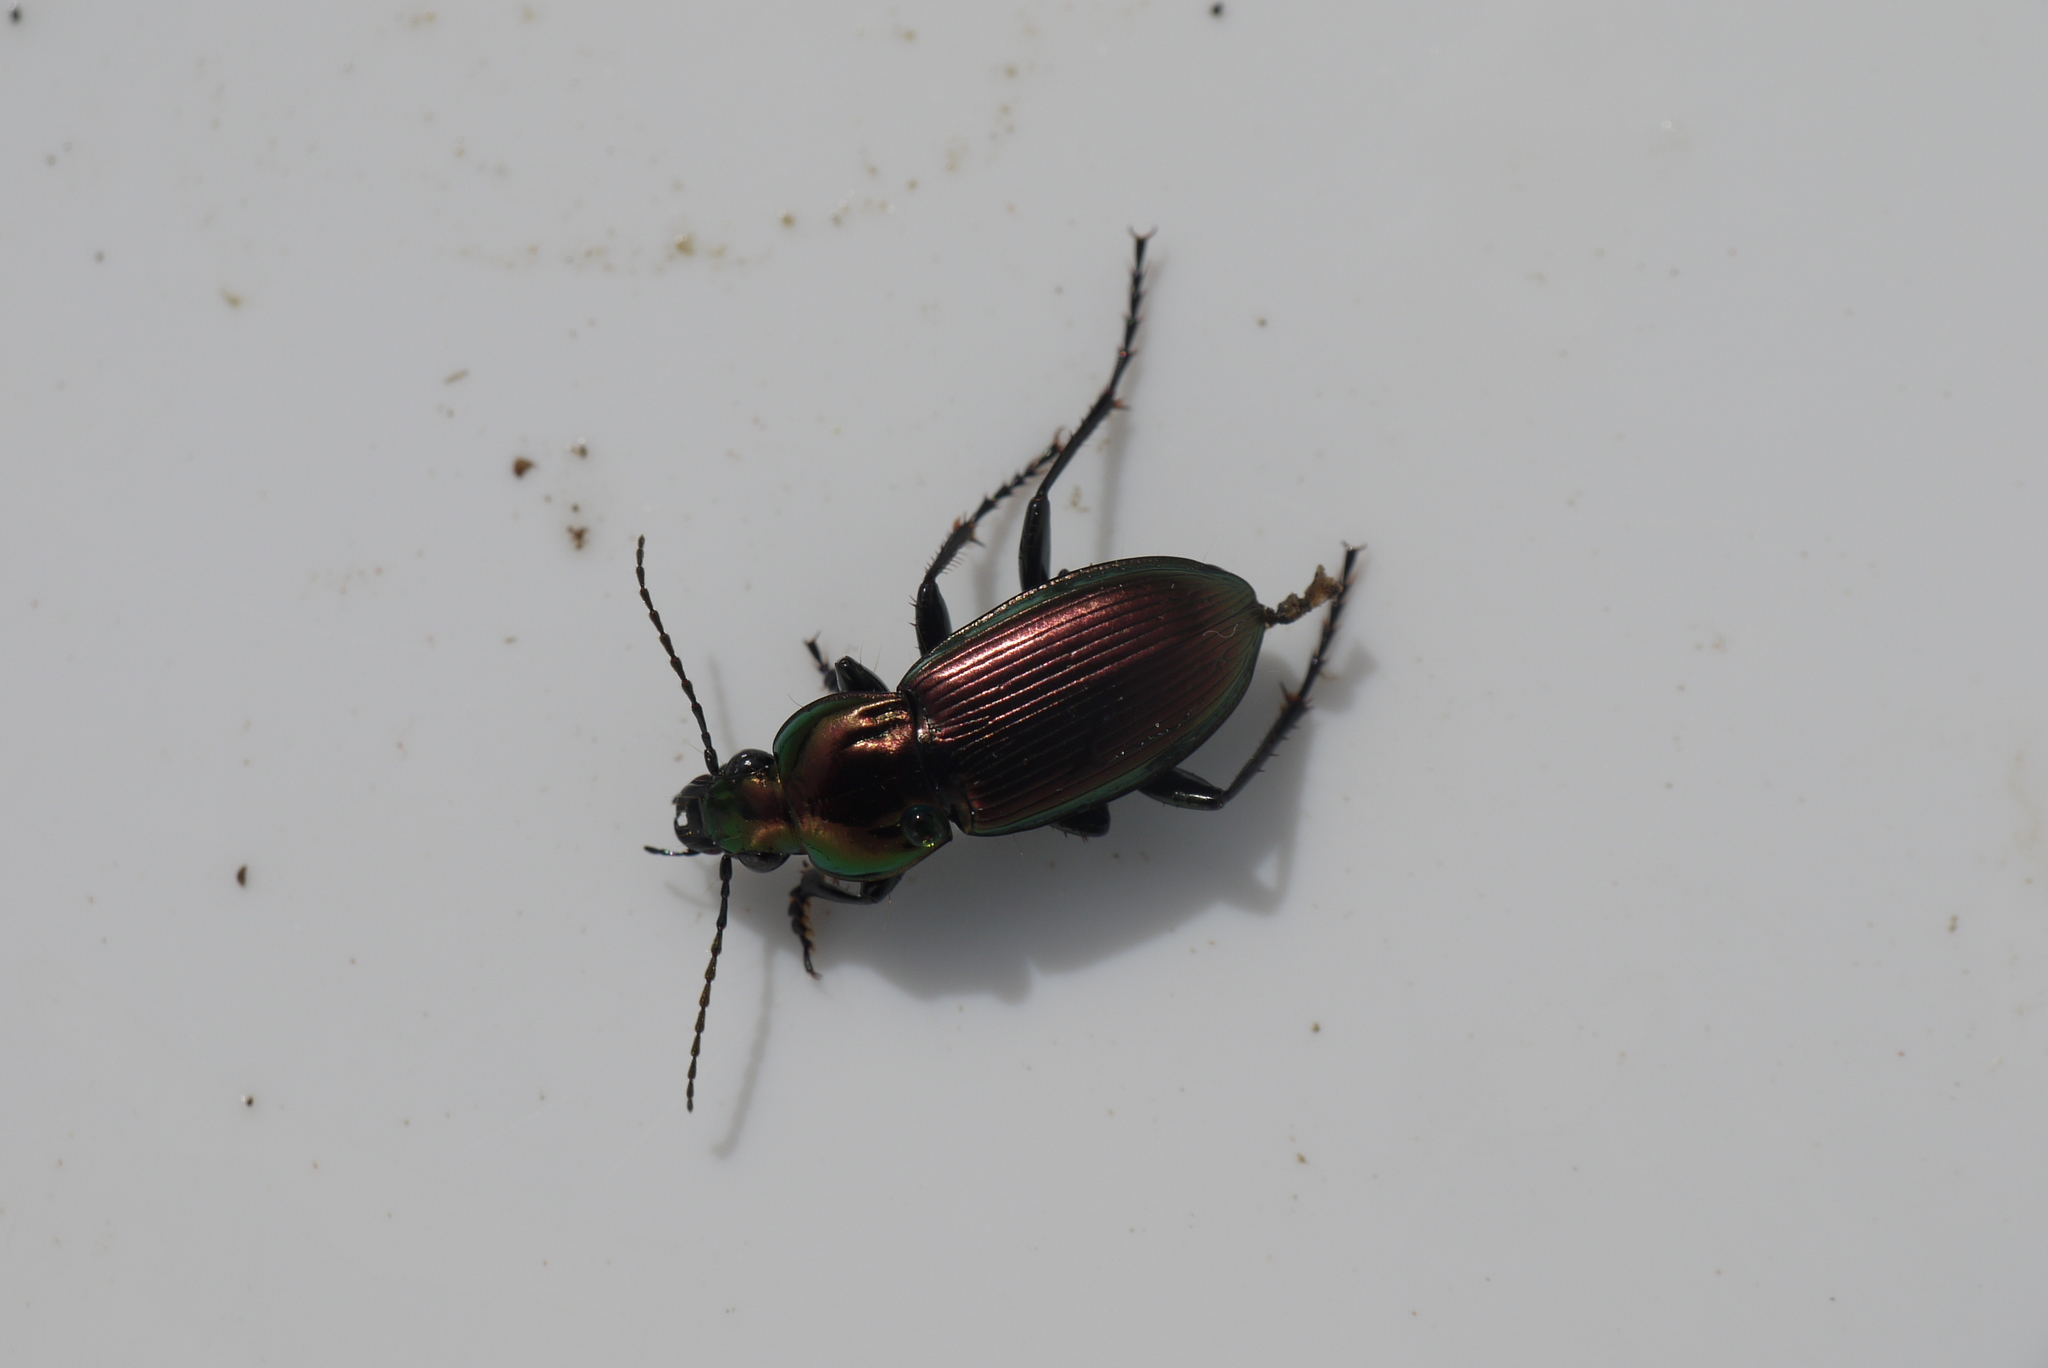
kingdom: Animalia
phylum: Arthropoda
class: Insecta
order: Coleoptera
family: Carabidae
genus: Poecilus
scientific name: Poecilus lepidus
